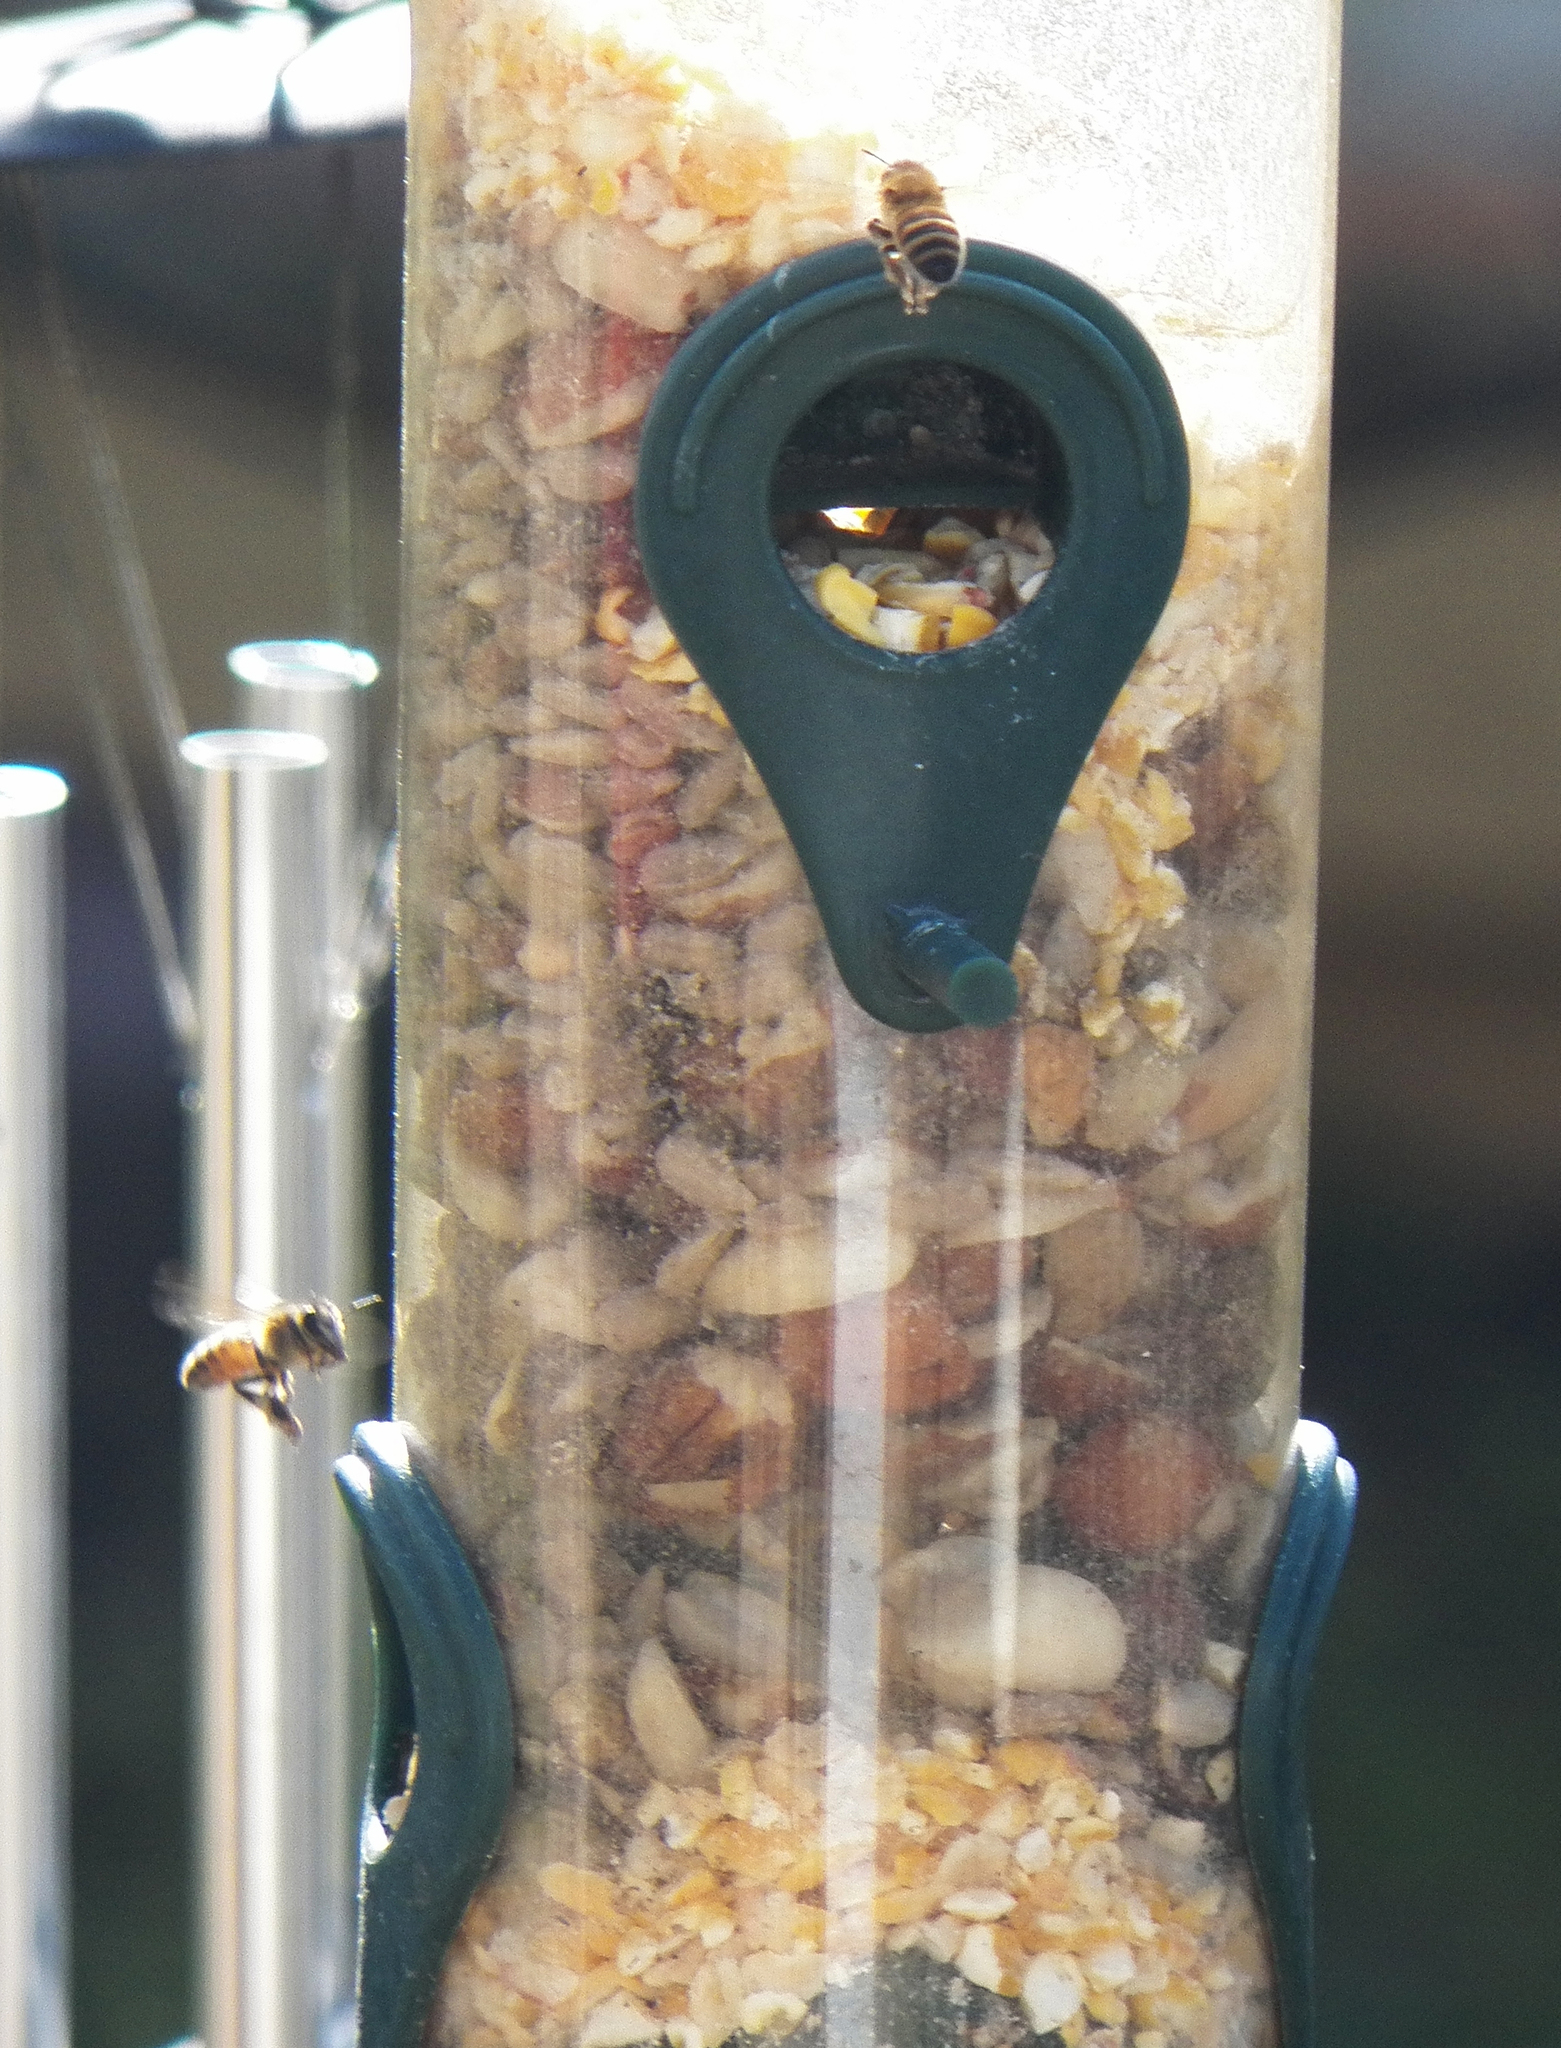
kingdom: Animalia
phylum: Arthropoda
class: Insecta
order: Hymenoptera
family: Apidae
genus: Apis
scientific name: Apis mellifera
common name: Honey bee
